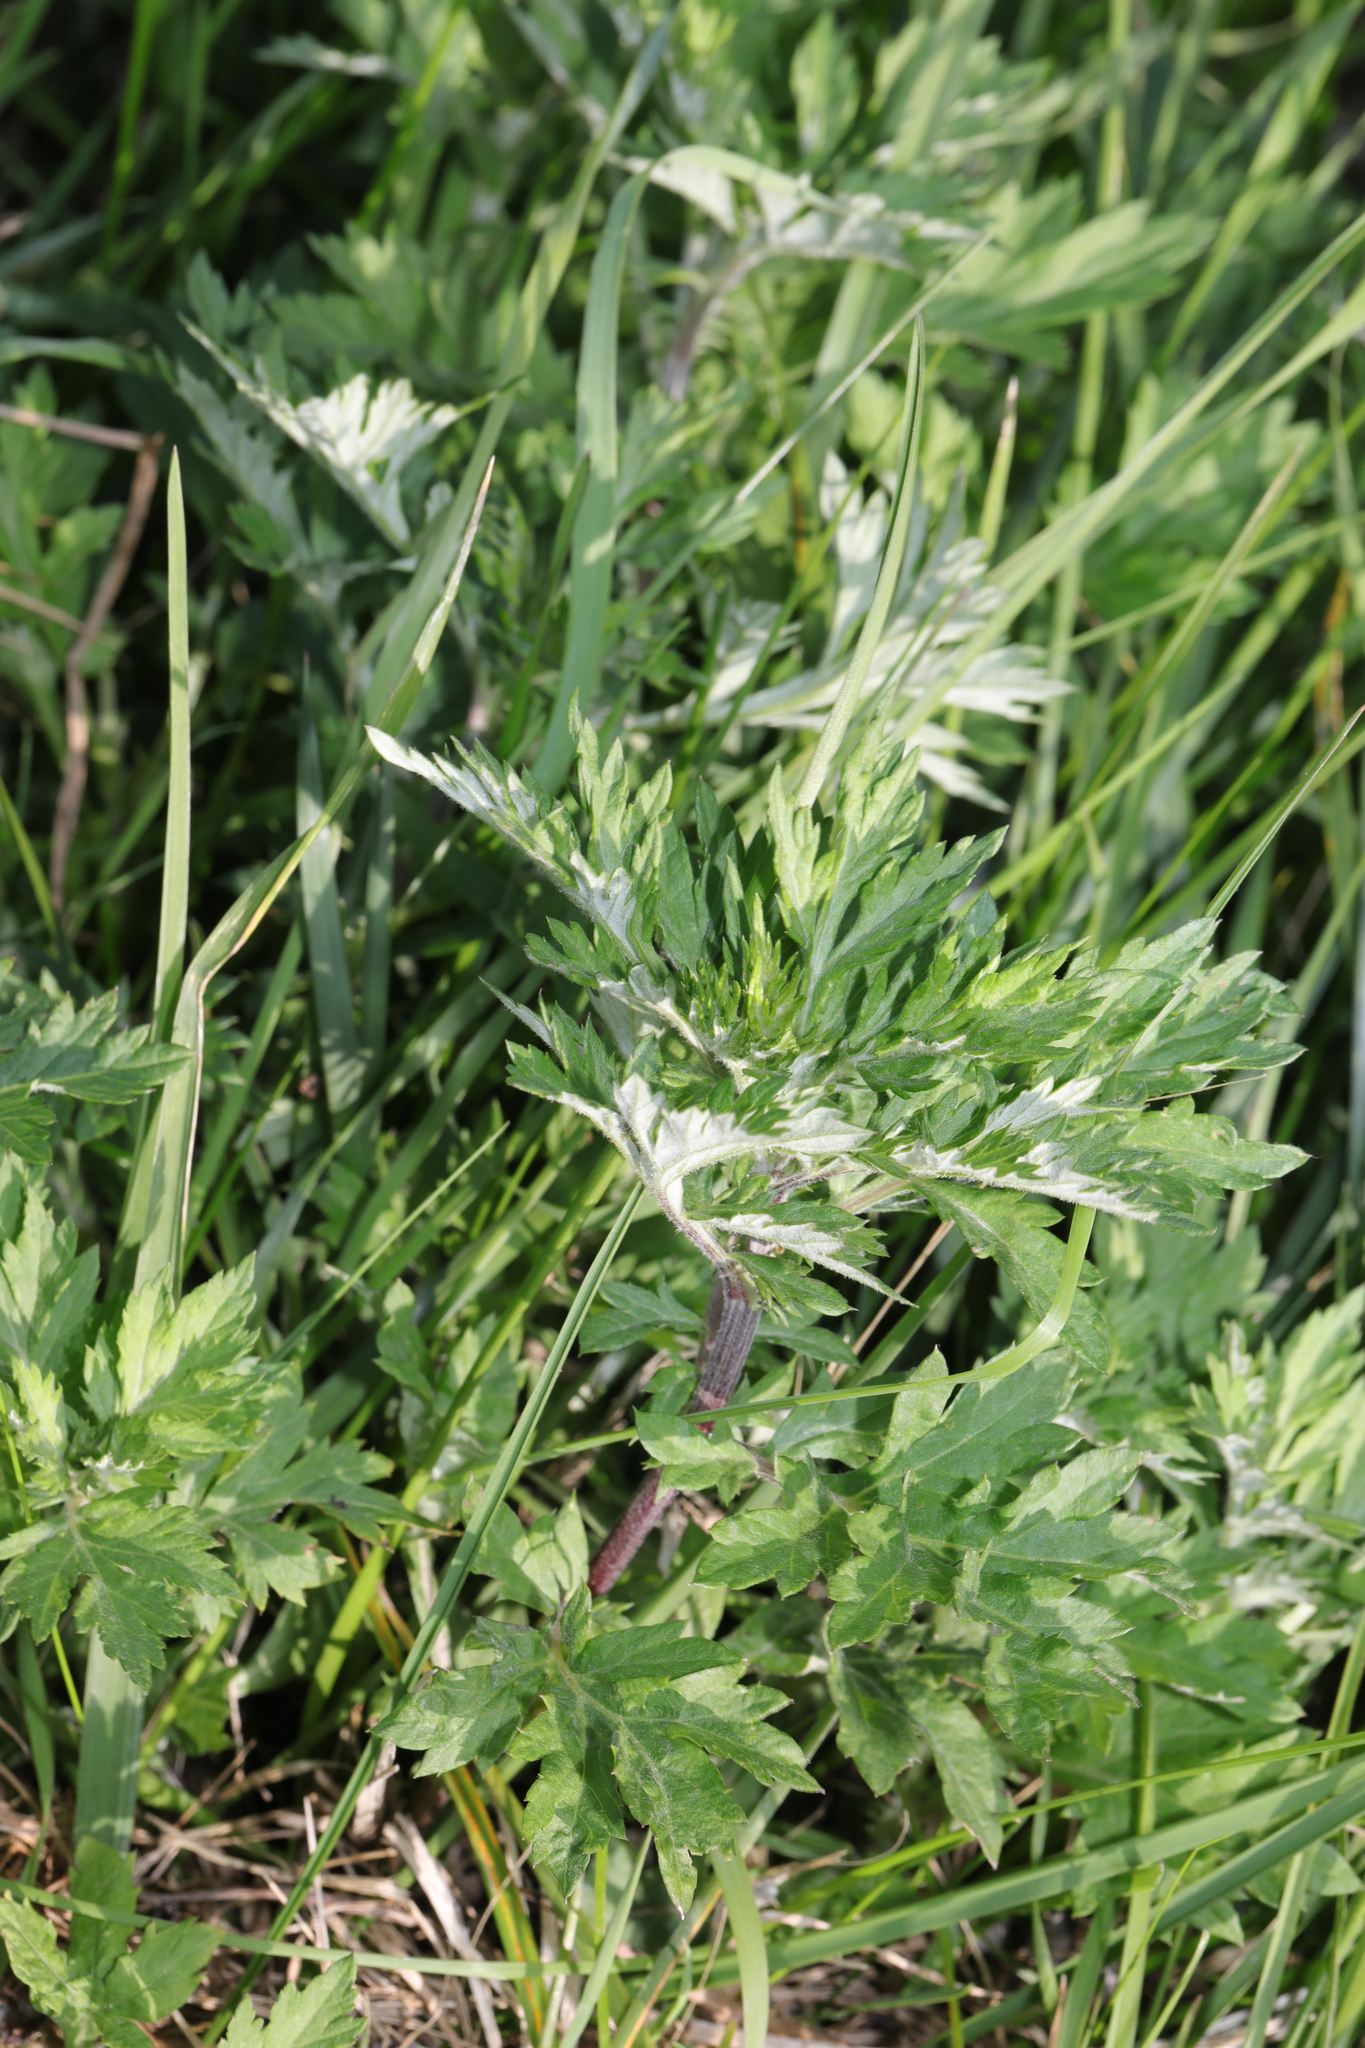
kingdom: Plantae
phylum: Tracheophyta
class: Magnoliopsida
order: Asterales
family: Asteraceae
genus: Artemisia
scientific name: Artemisia vulgaris
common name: Mugwort
